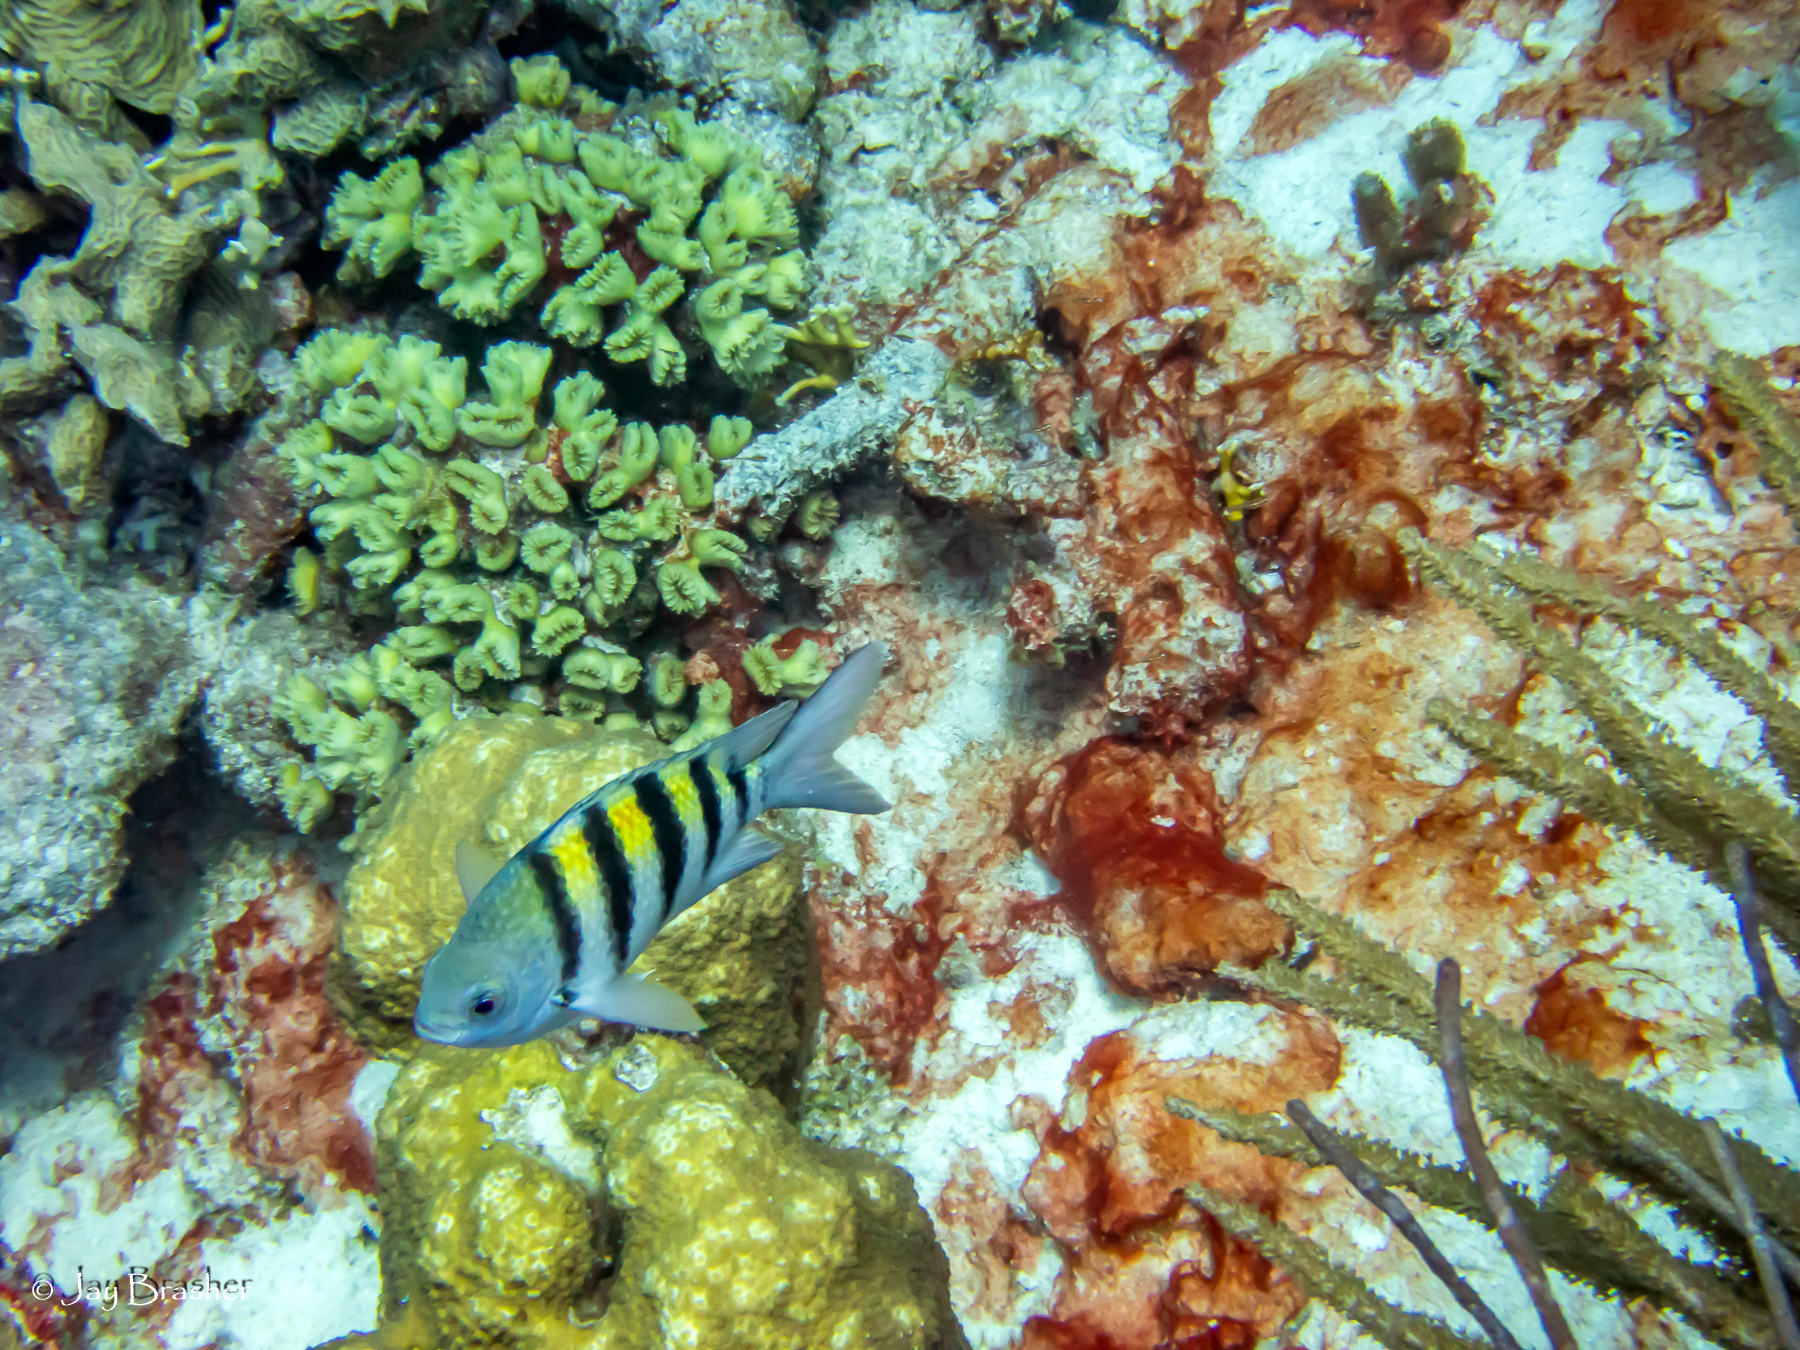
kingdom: Animalia
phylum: Chordata
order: Perciformes
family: Pomacentridae
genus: Abudefduf
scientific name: Abudefduf saxatilis
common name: Sergeant major
